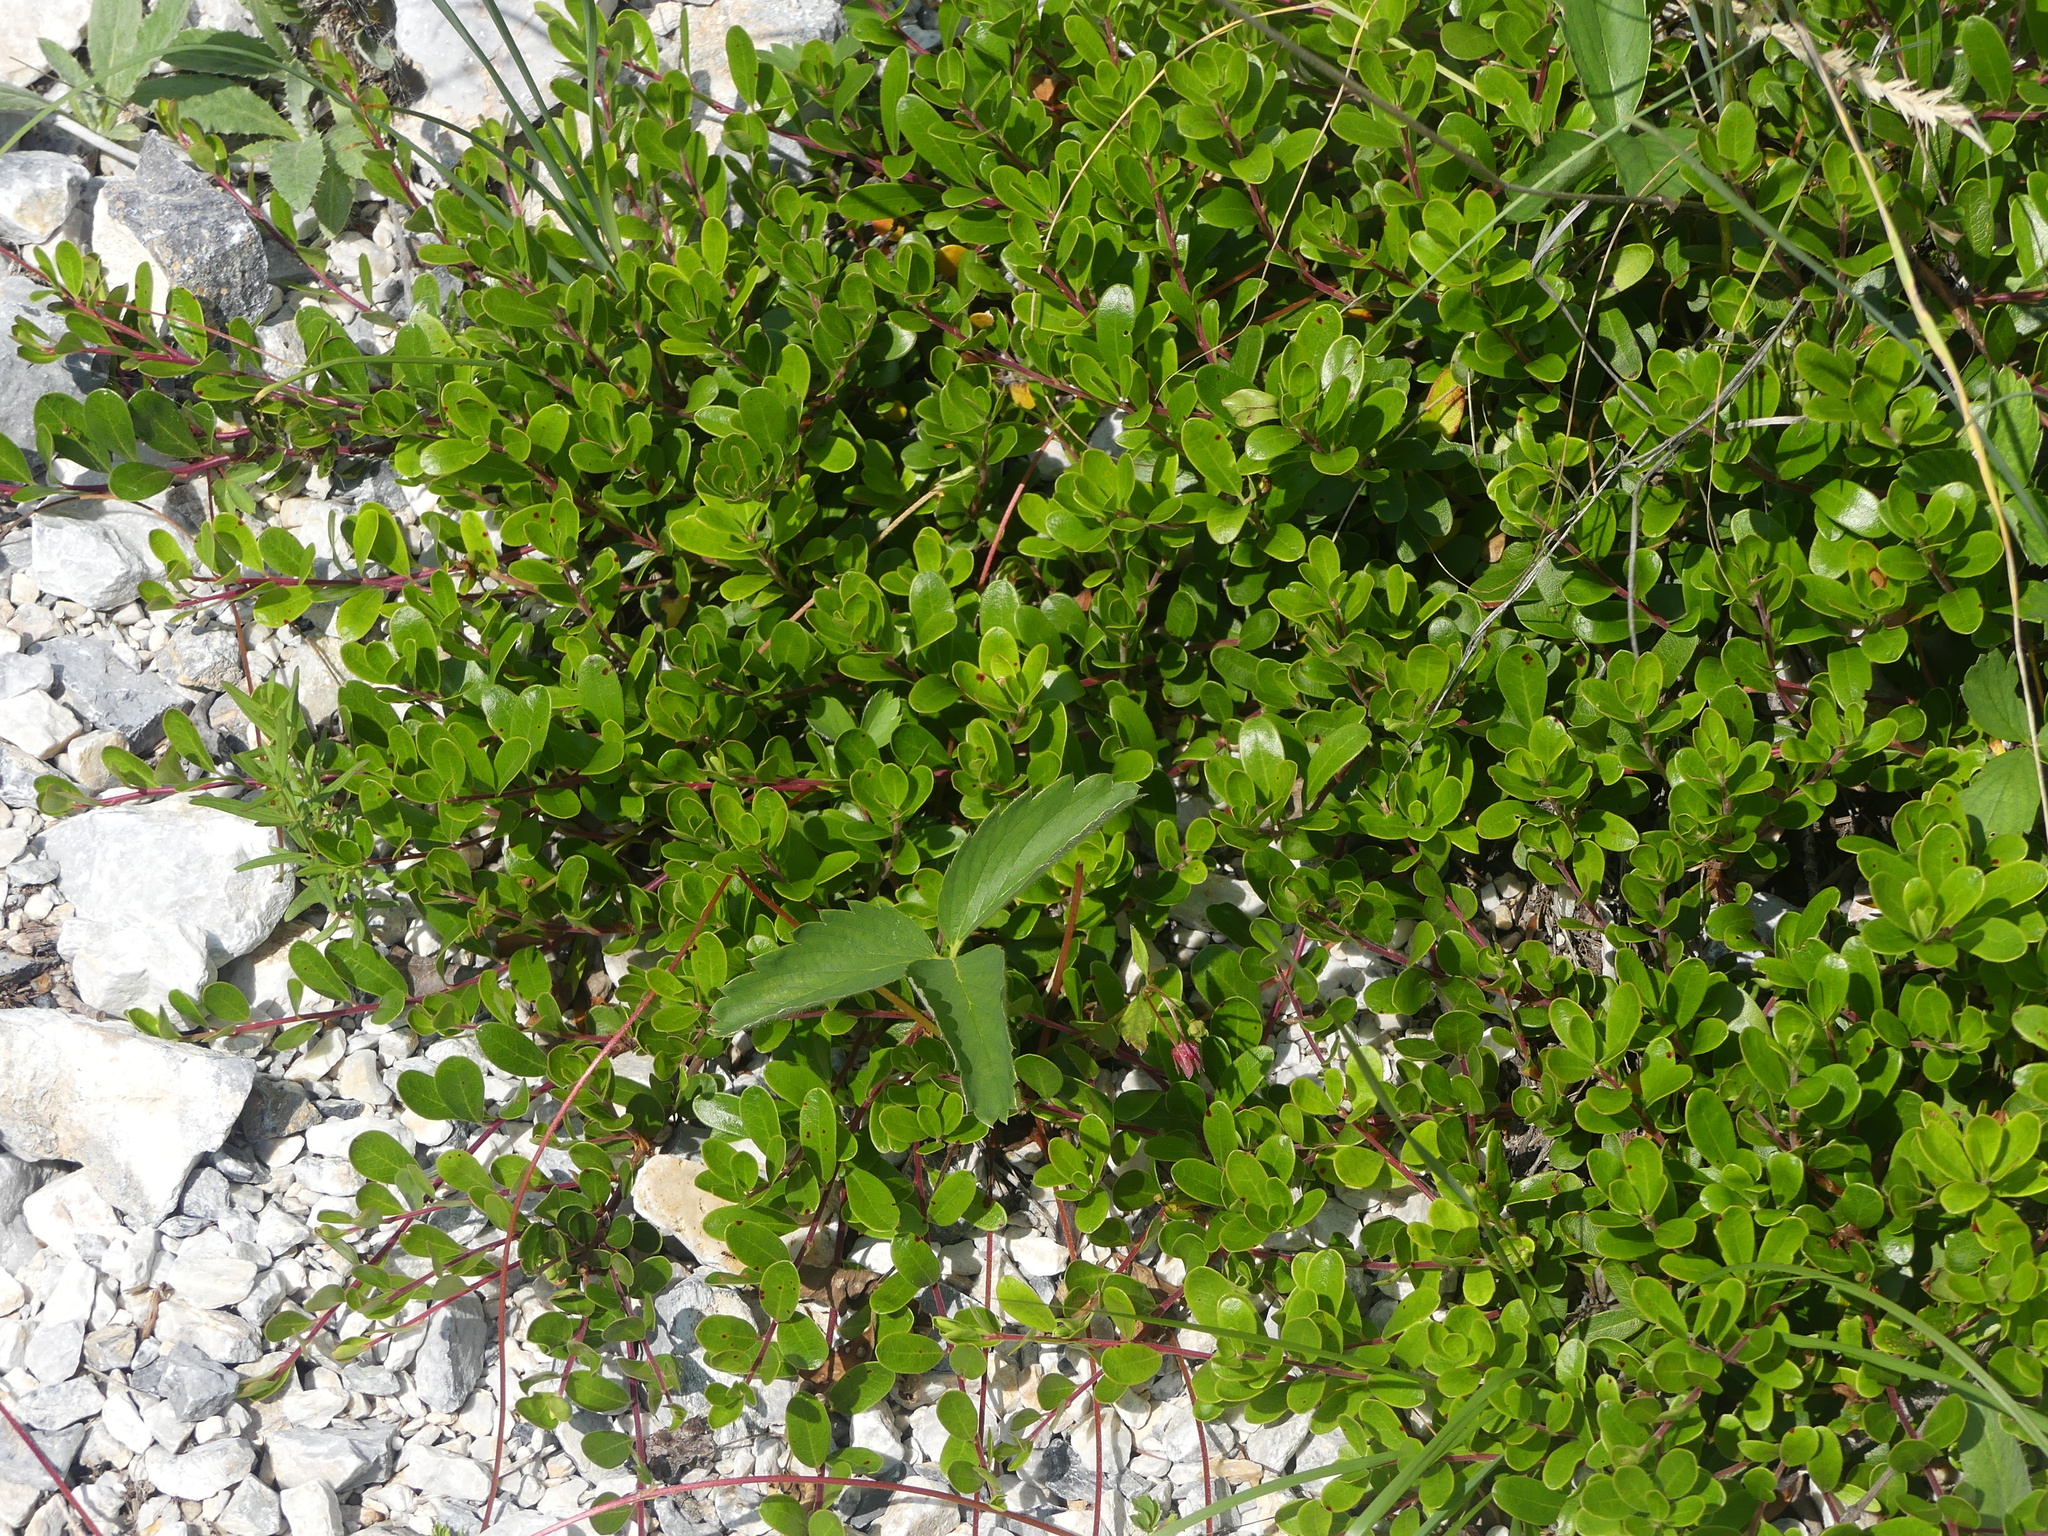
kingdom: Plantae
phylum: Tracheophyta
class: Magnoliopsida
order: Ericales
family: Ericaceae
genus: Arctostaphylos
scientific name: Arctostaphylos uva-ursi
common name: Bearberry
